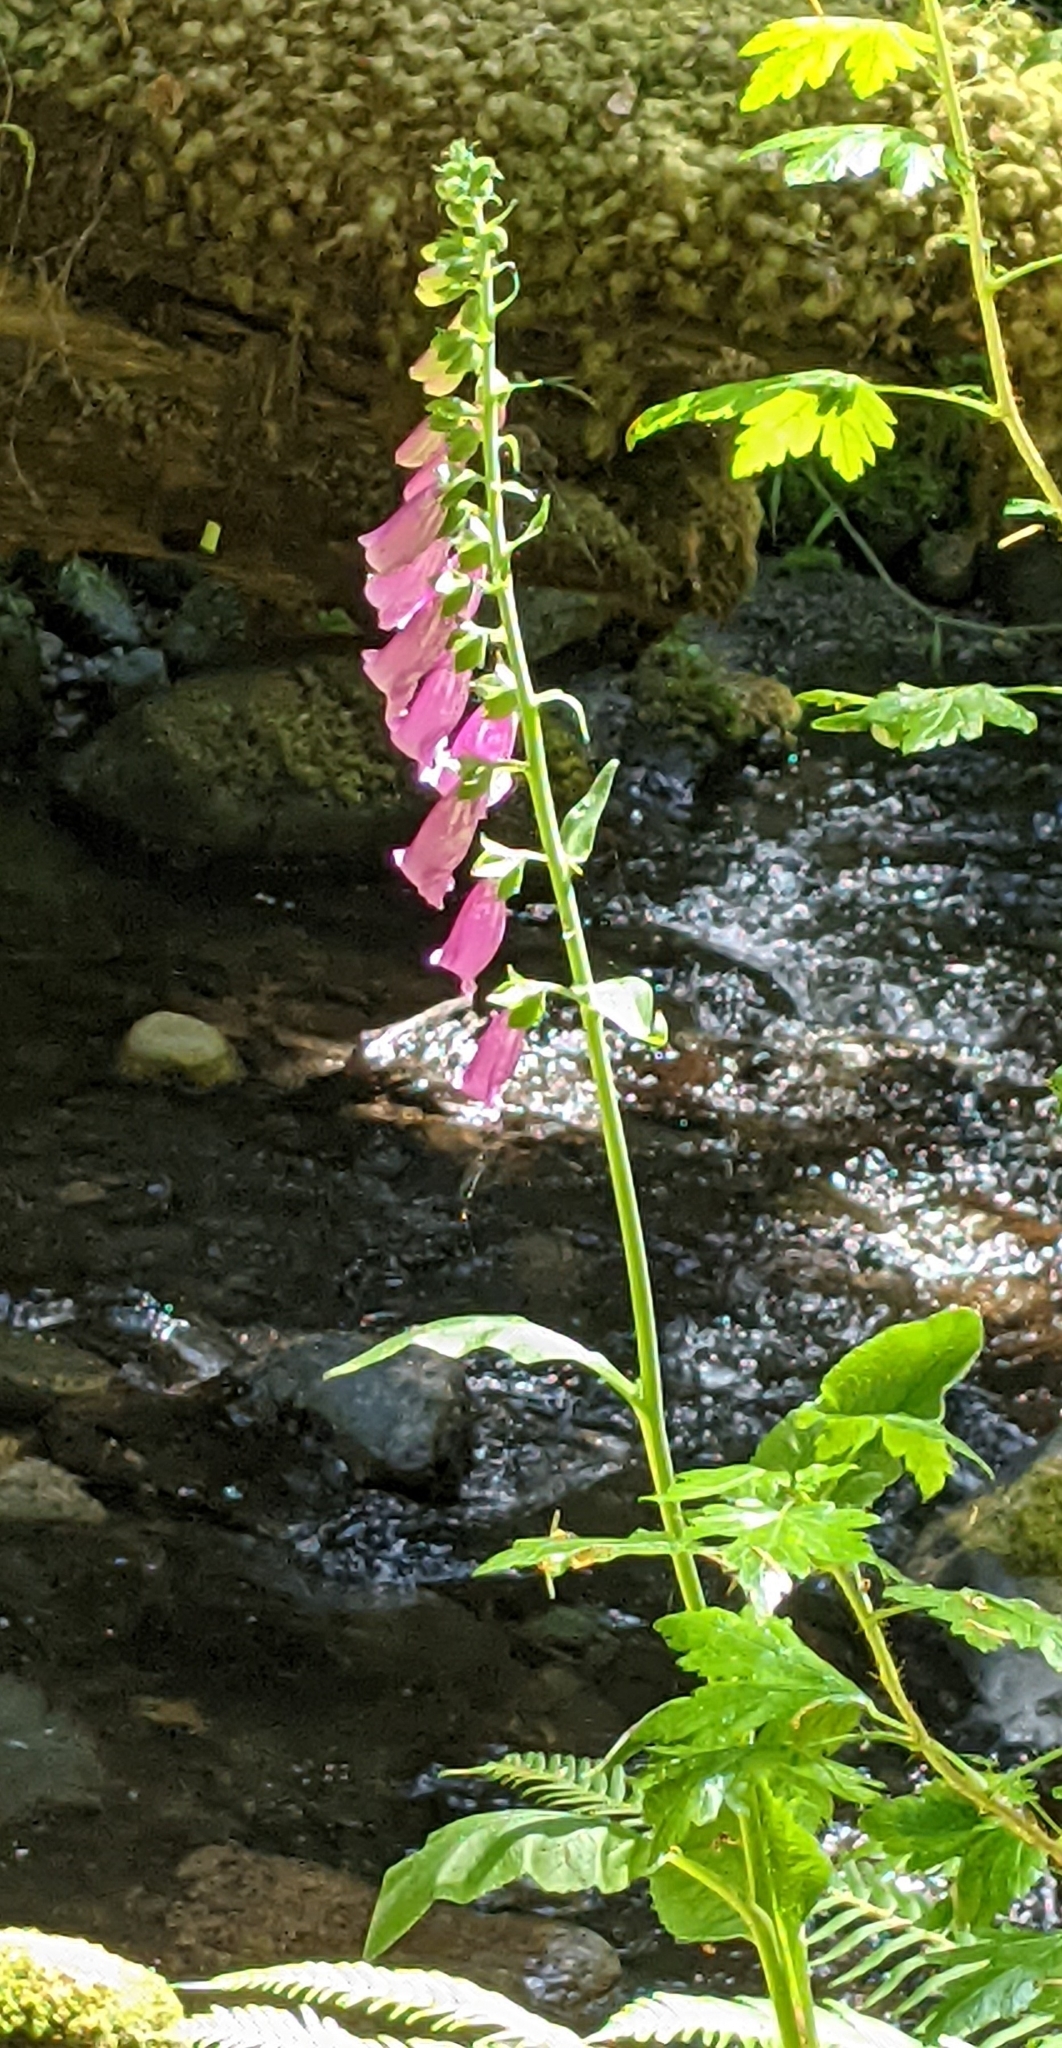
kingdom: Plantae
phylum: Tracheophyta
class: Magnoliopsida
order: Lamiales
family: Plantaginaceae
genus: Digitalis
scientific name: Digitalis purpurea
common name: Foxglove
